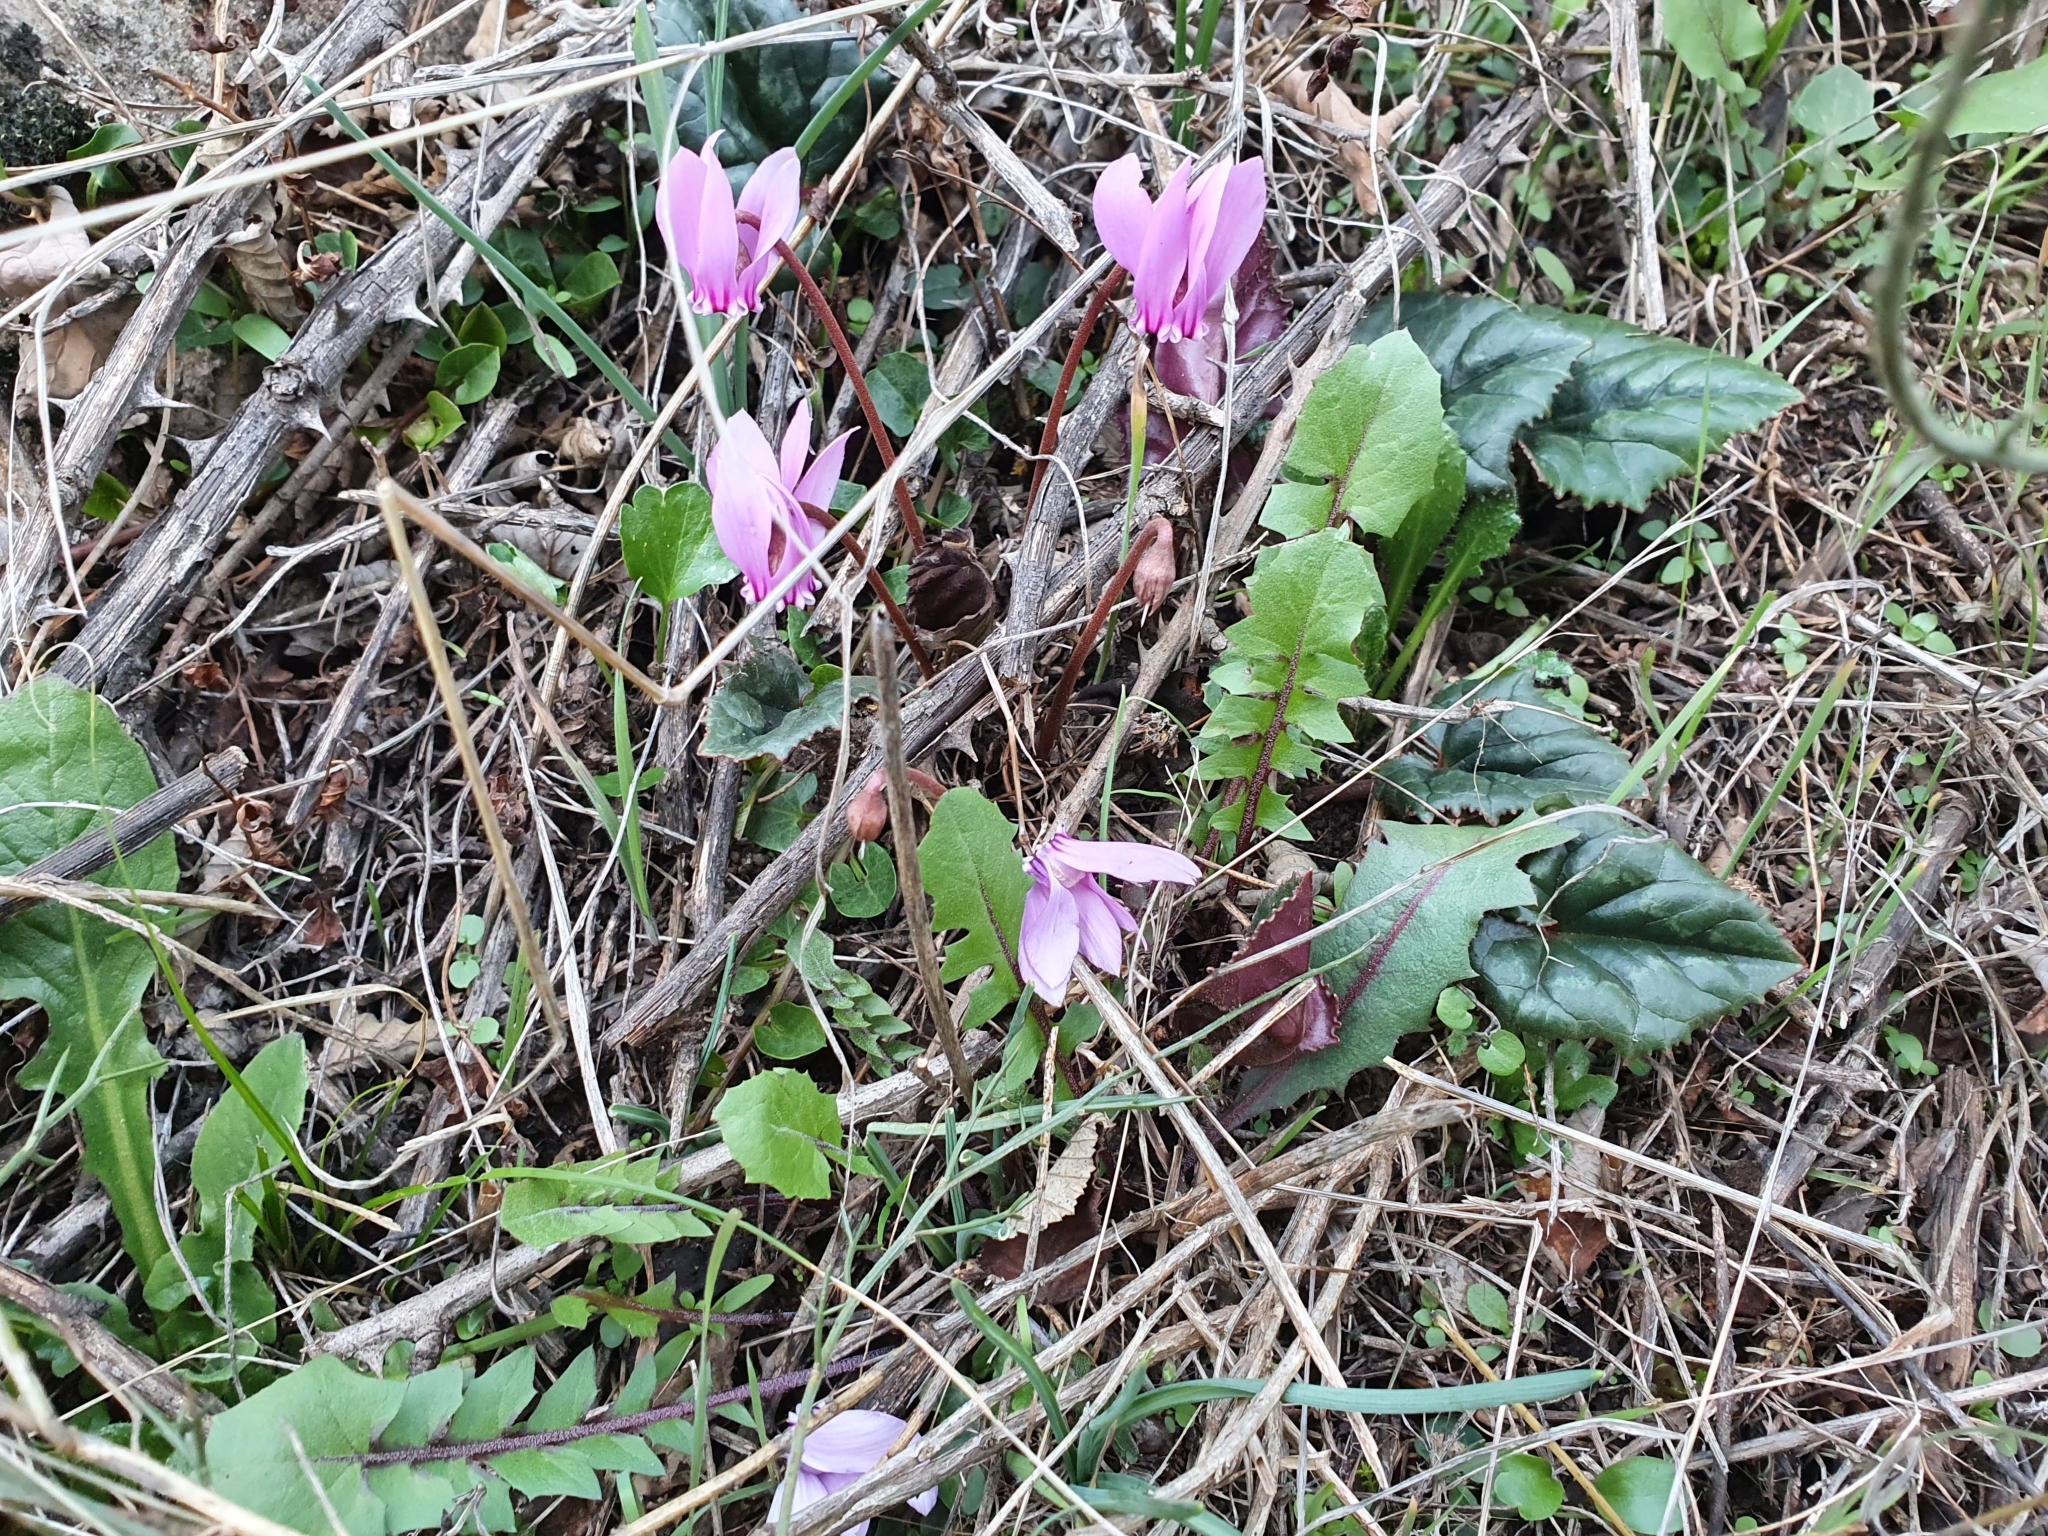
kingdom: Plantae
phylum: Tracheophyta
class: Magnoliopsida
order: Ericales
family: Primulaceae
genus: Cyclamen
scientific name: Cyclamen africanum
